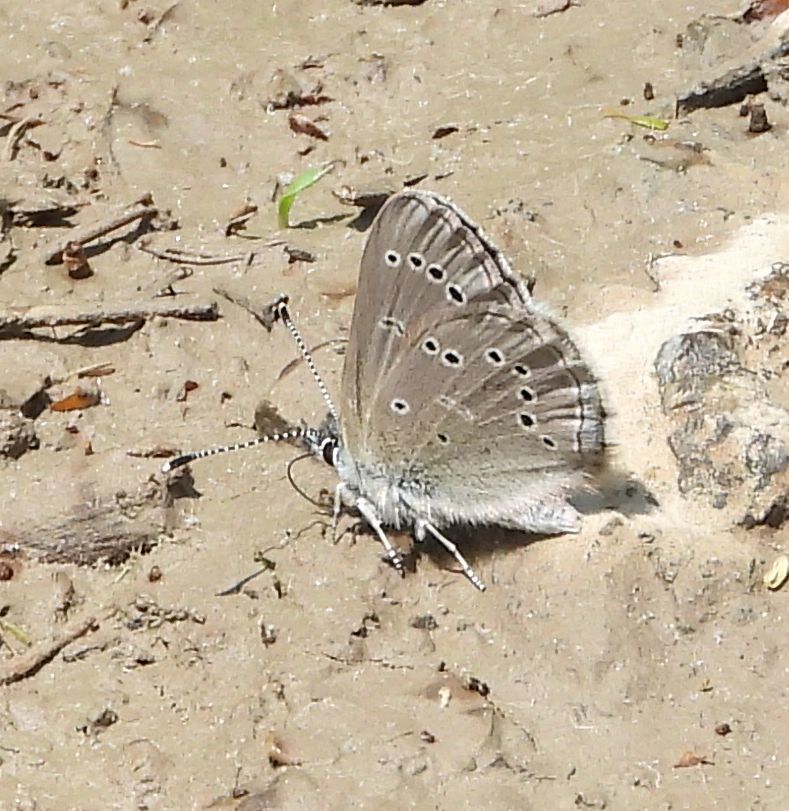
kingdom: Animalia
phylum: Arthropoda
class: Insecta
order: Lepidoptera
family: Lycaenidae
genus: Glaucopsyche
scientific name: Glaucopsyche lygdamus
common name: Silvery blue
